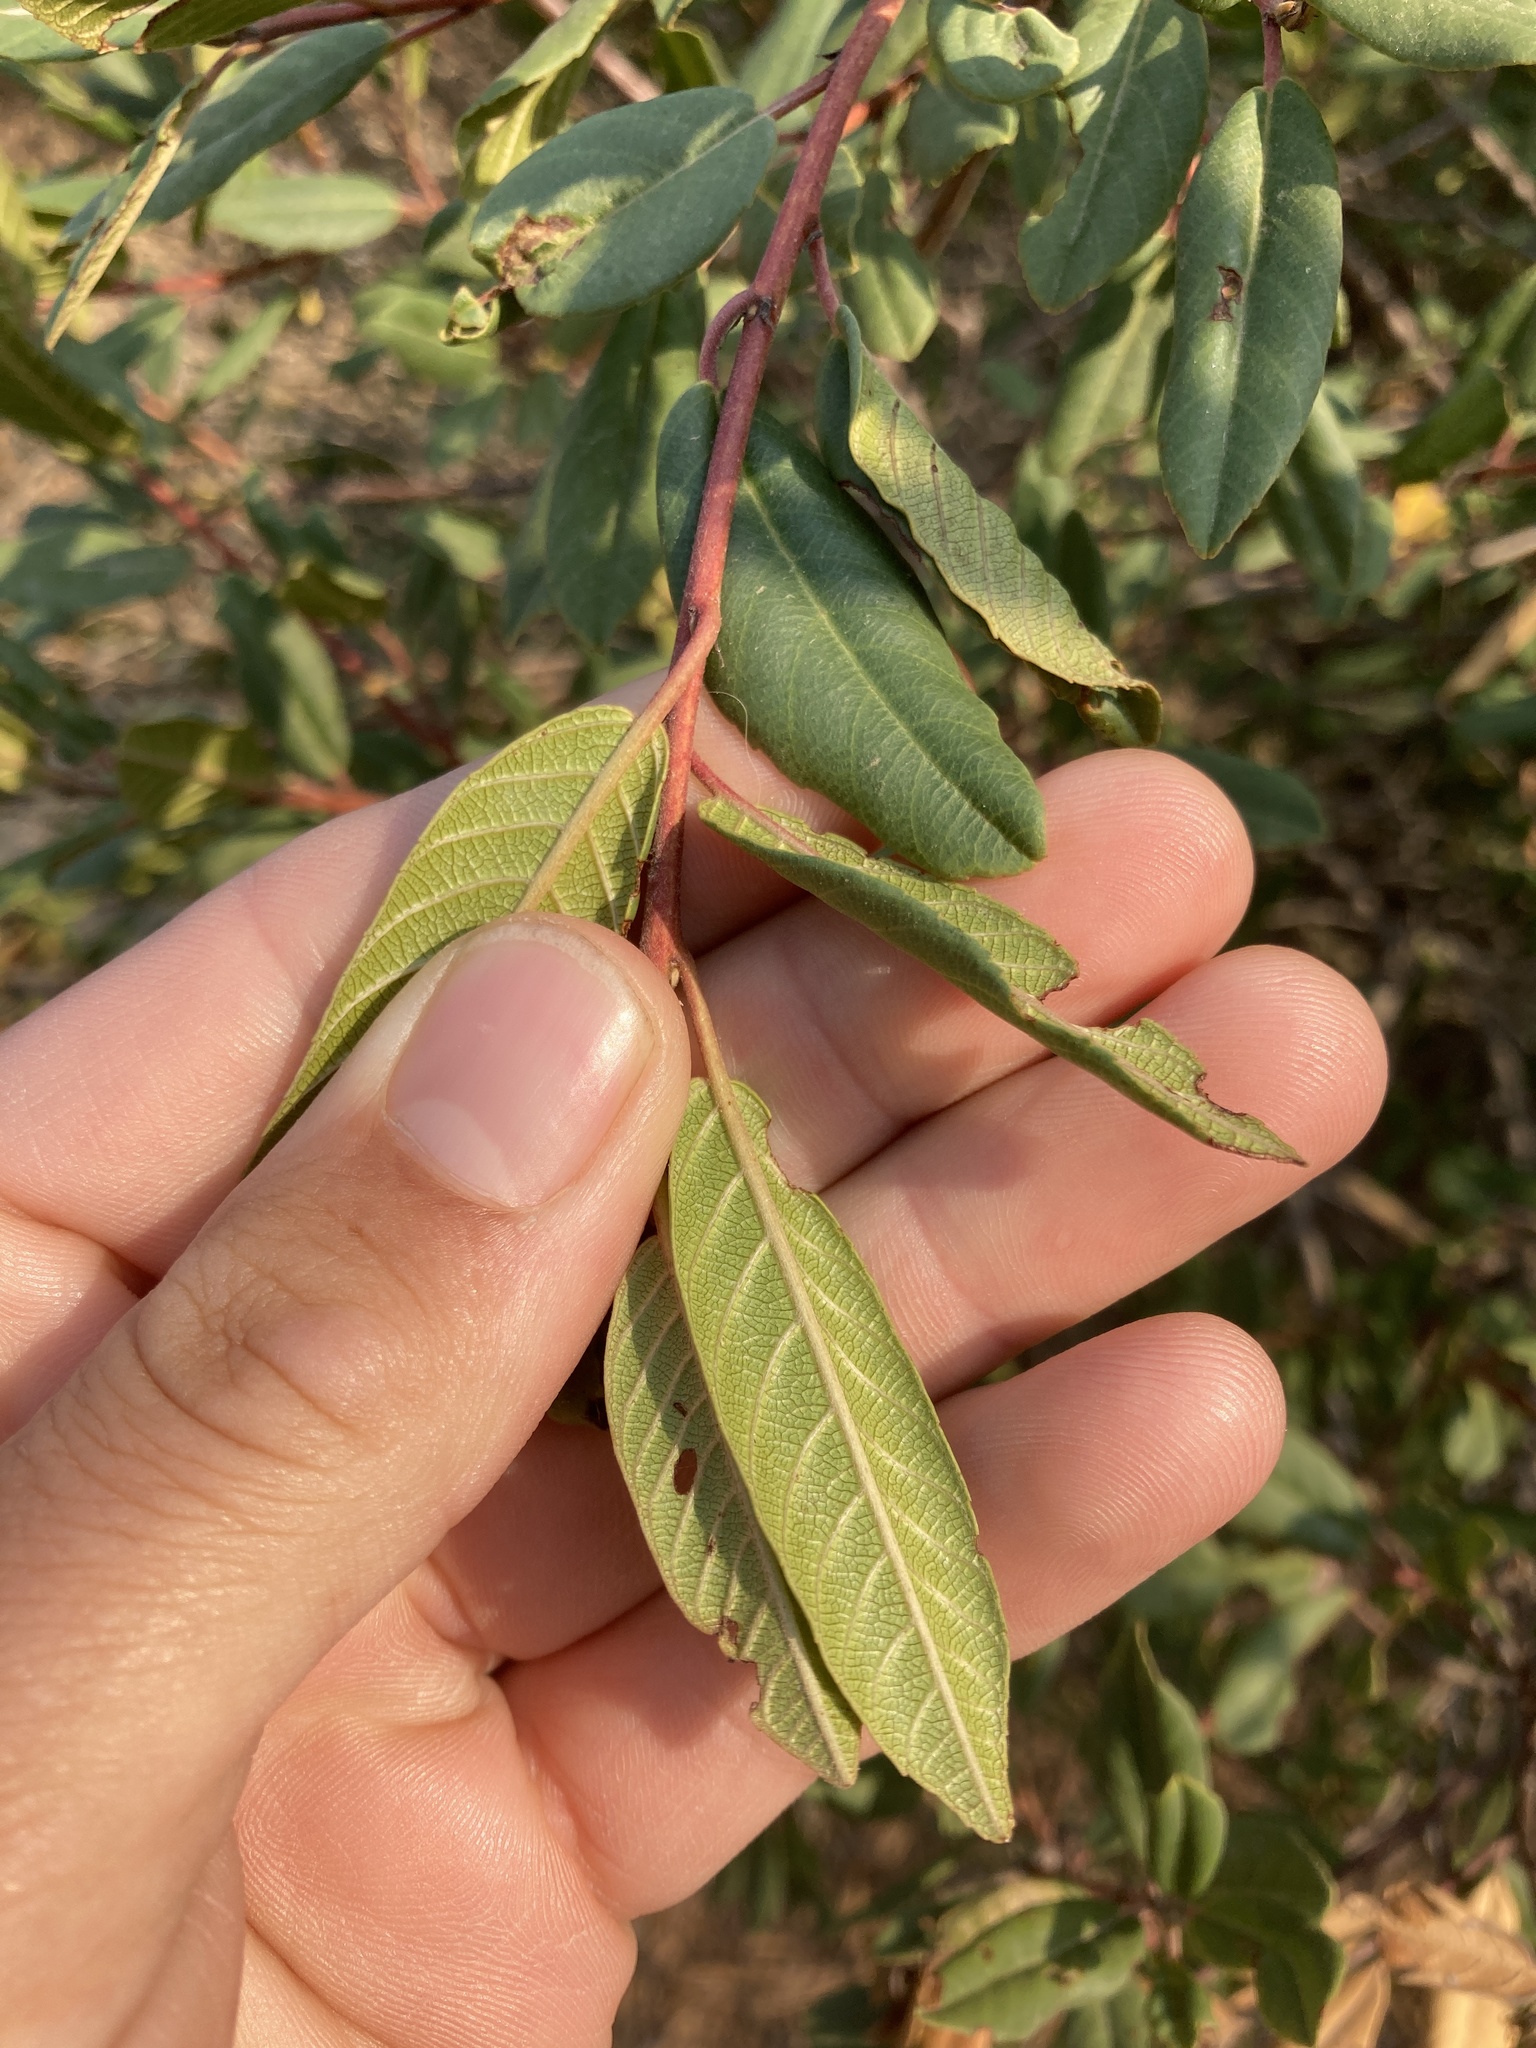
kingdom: Plantae
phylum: Tracheophyta
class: Magnoliopsida
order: Rosales
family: Rhamnaceae
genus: Frangula
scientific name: Frangula californica
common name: California buckthorn
